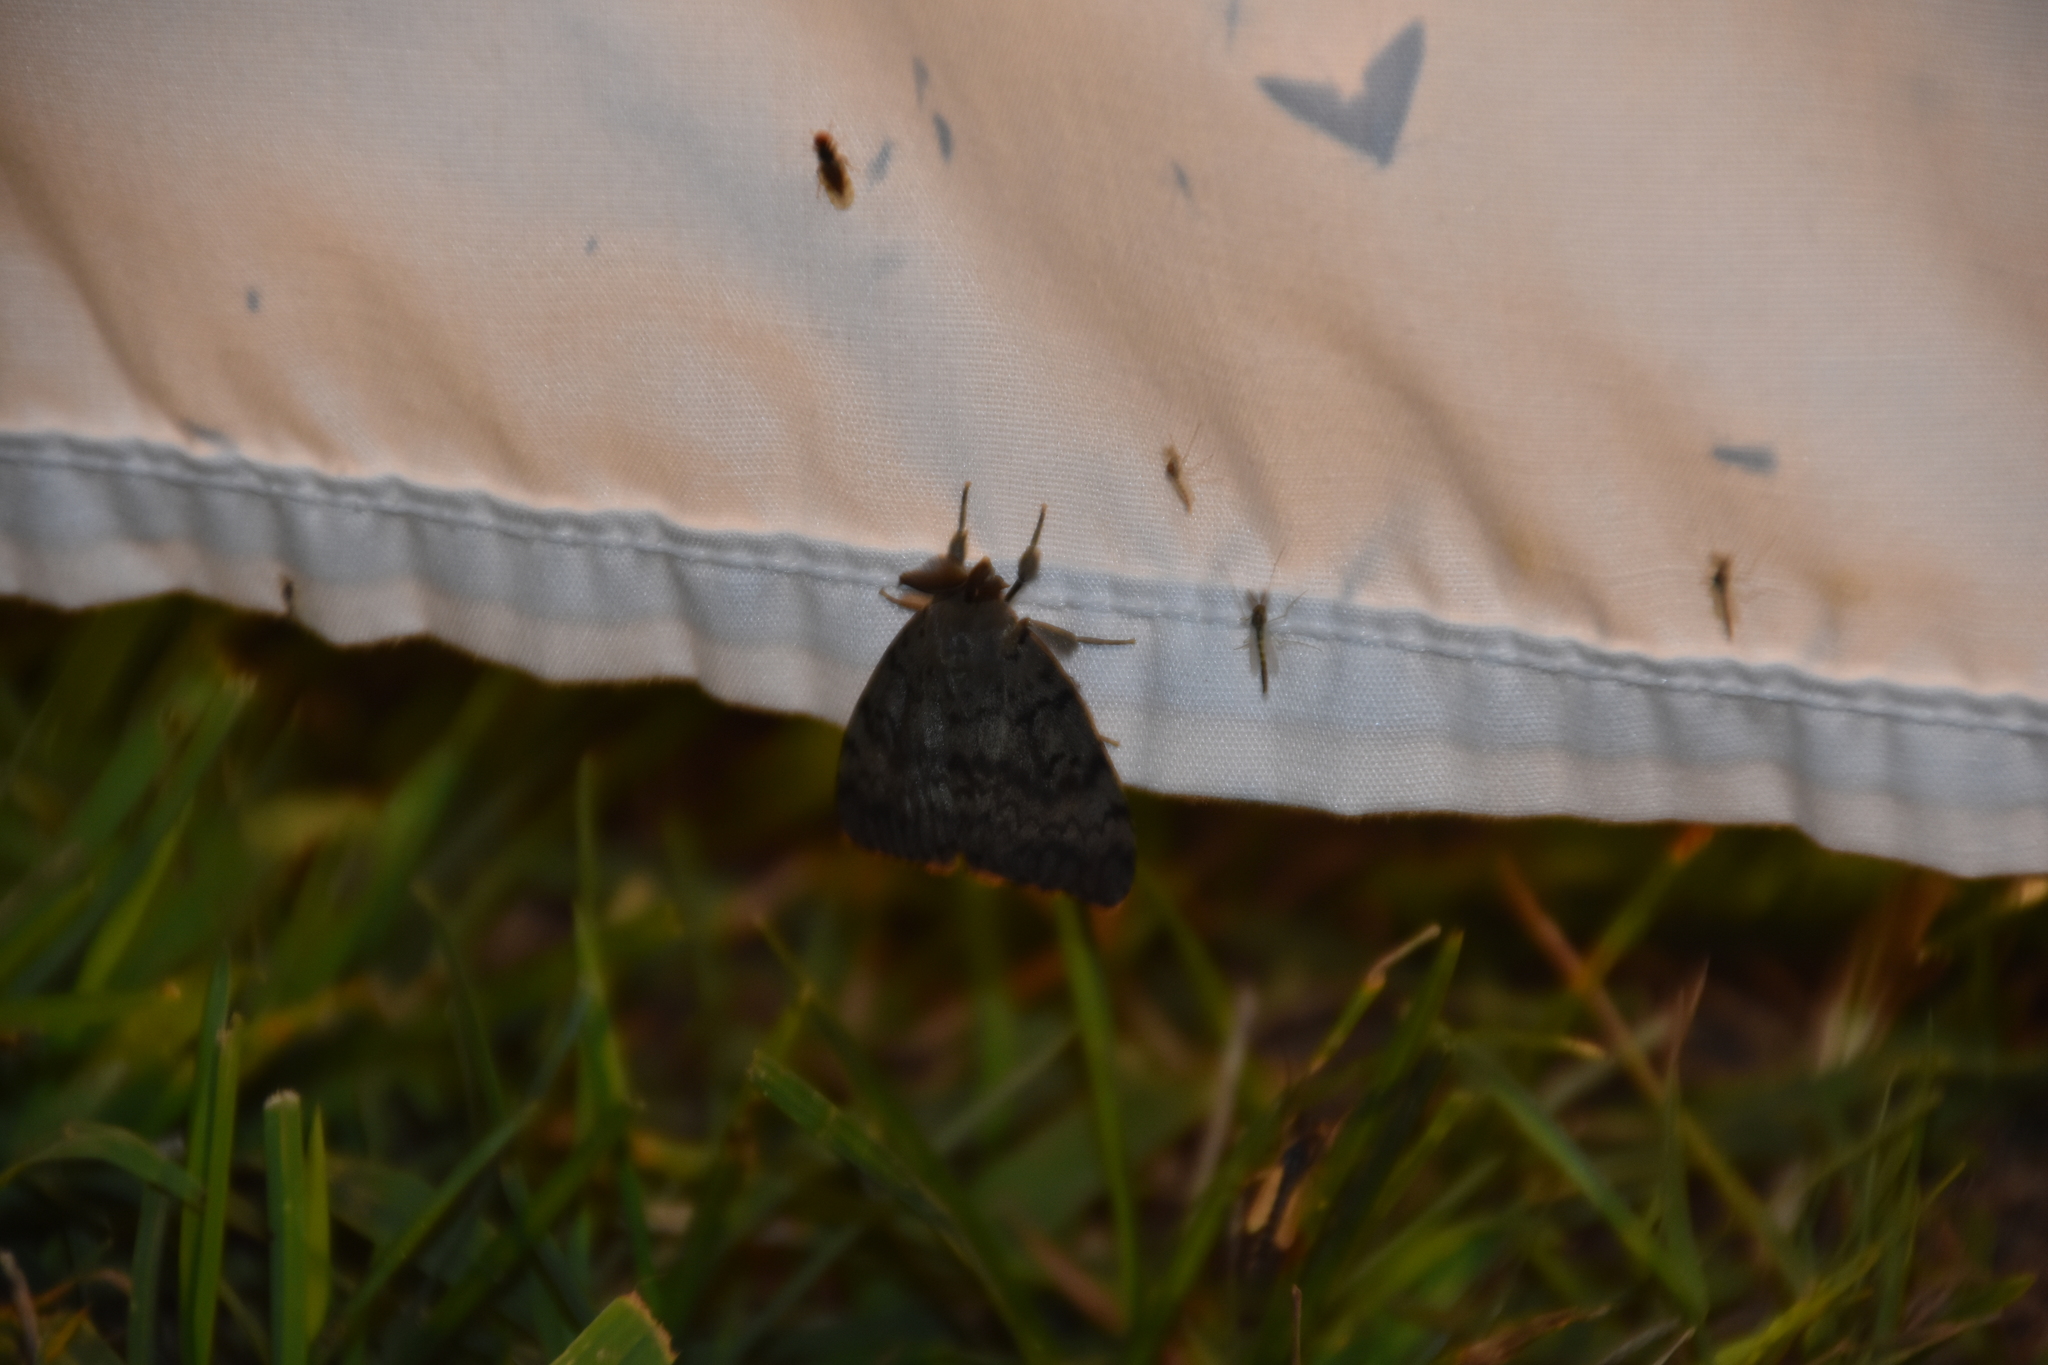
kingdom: Animalia
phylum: Arthropoda
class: Insecta
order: Lepidoptera
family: Erebidae
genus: Lymantria
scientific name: Lymantria dispar
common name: Gypsy moth
